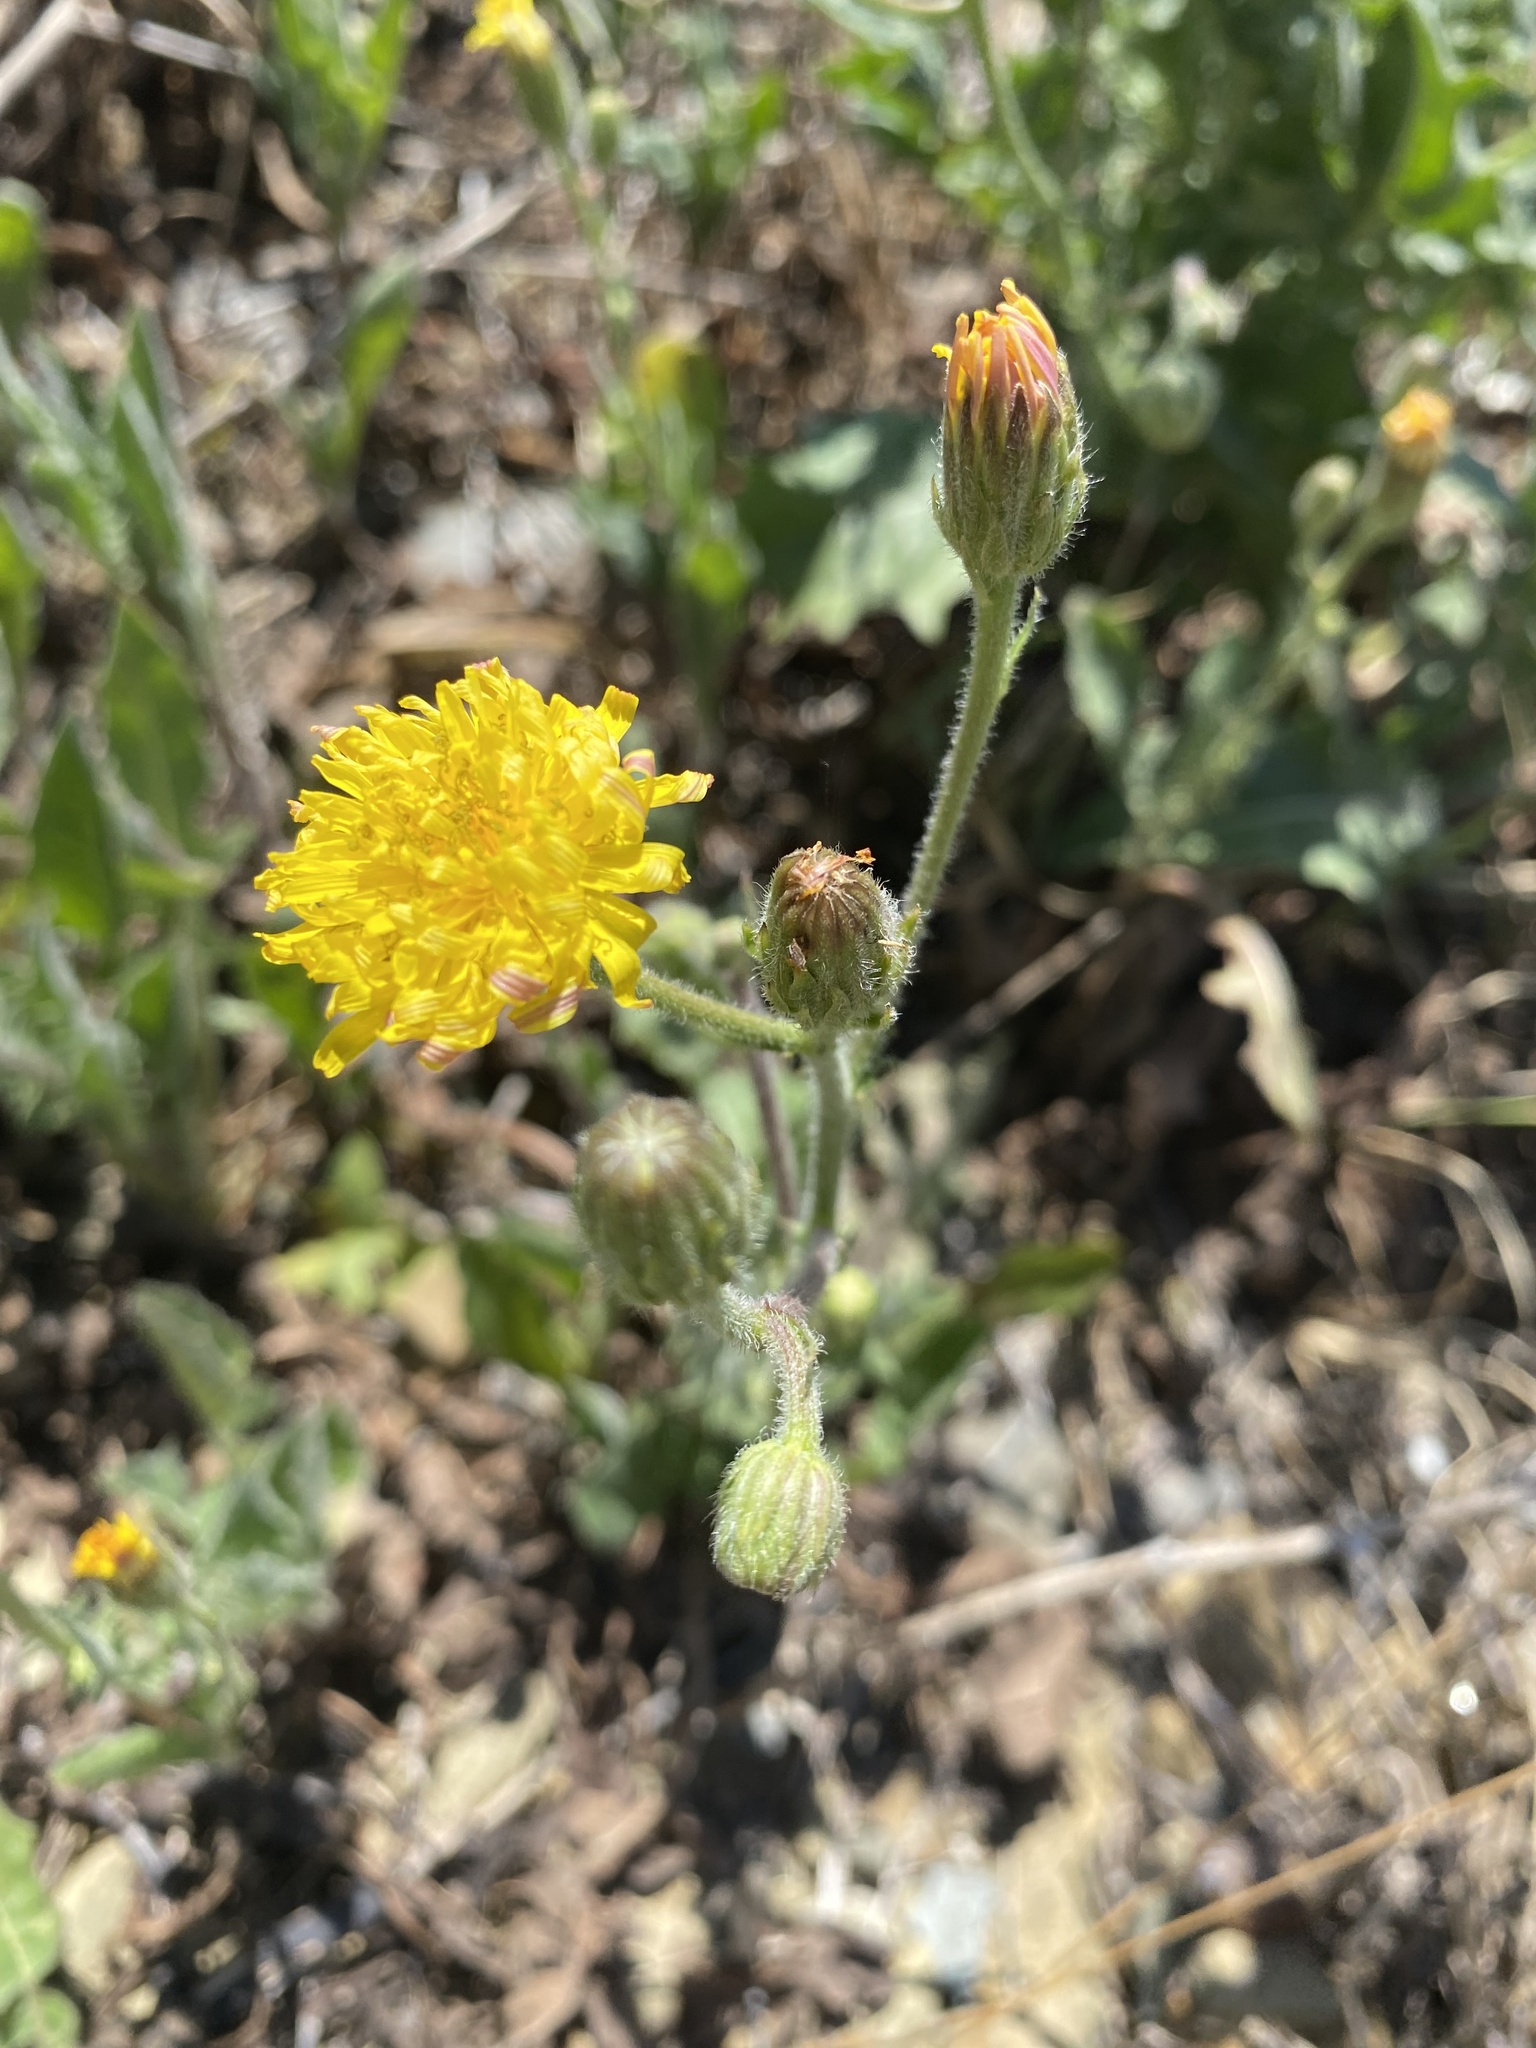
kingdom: Plantae
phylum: Tracheophyta
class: Magnoliopsida
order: Asterales
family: Asteraceae
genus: Crepis
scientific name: Crepis foetida
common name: Stinking hawk's-beard
